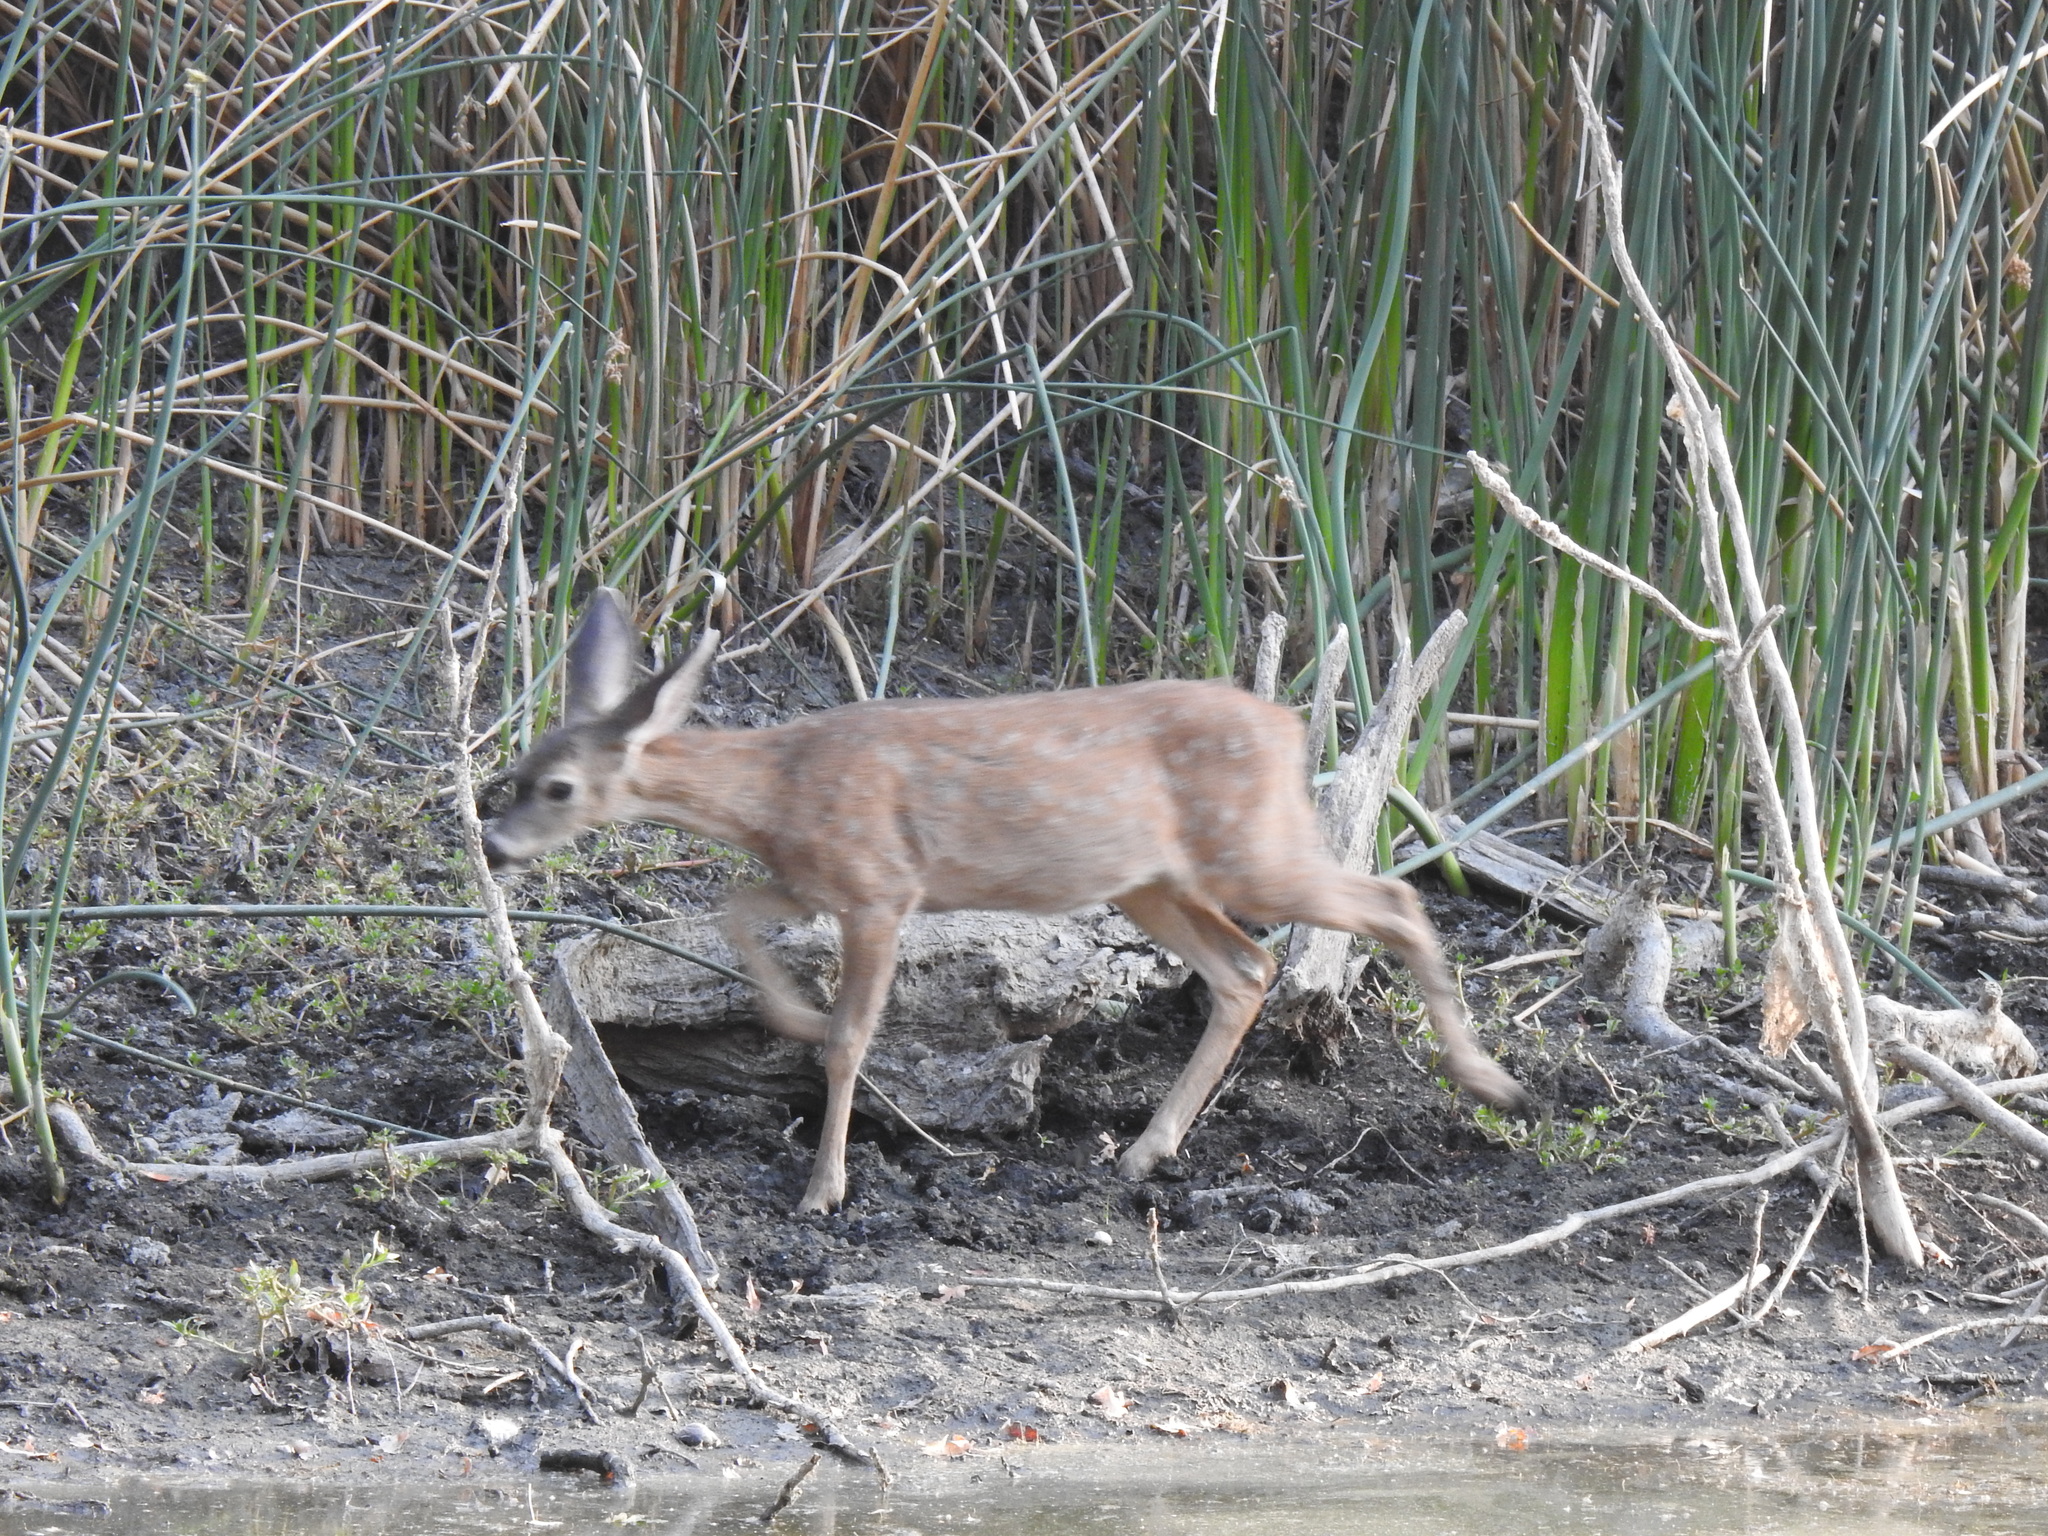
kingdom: Animalia
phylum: Chordata
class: Mammalia
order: Artiodactyla
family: Cervidae
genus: Odocoileus
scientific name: Odocoileus hemionus
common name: Mule deer
